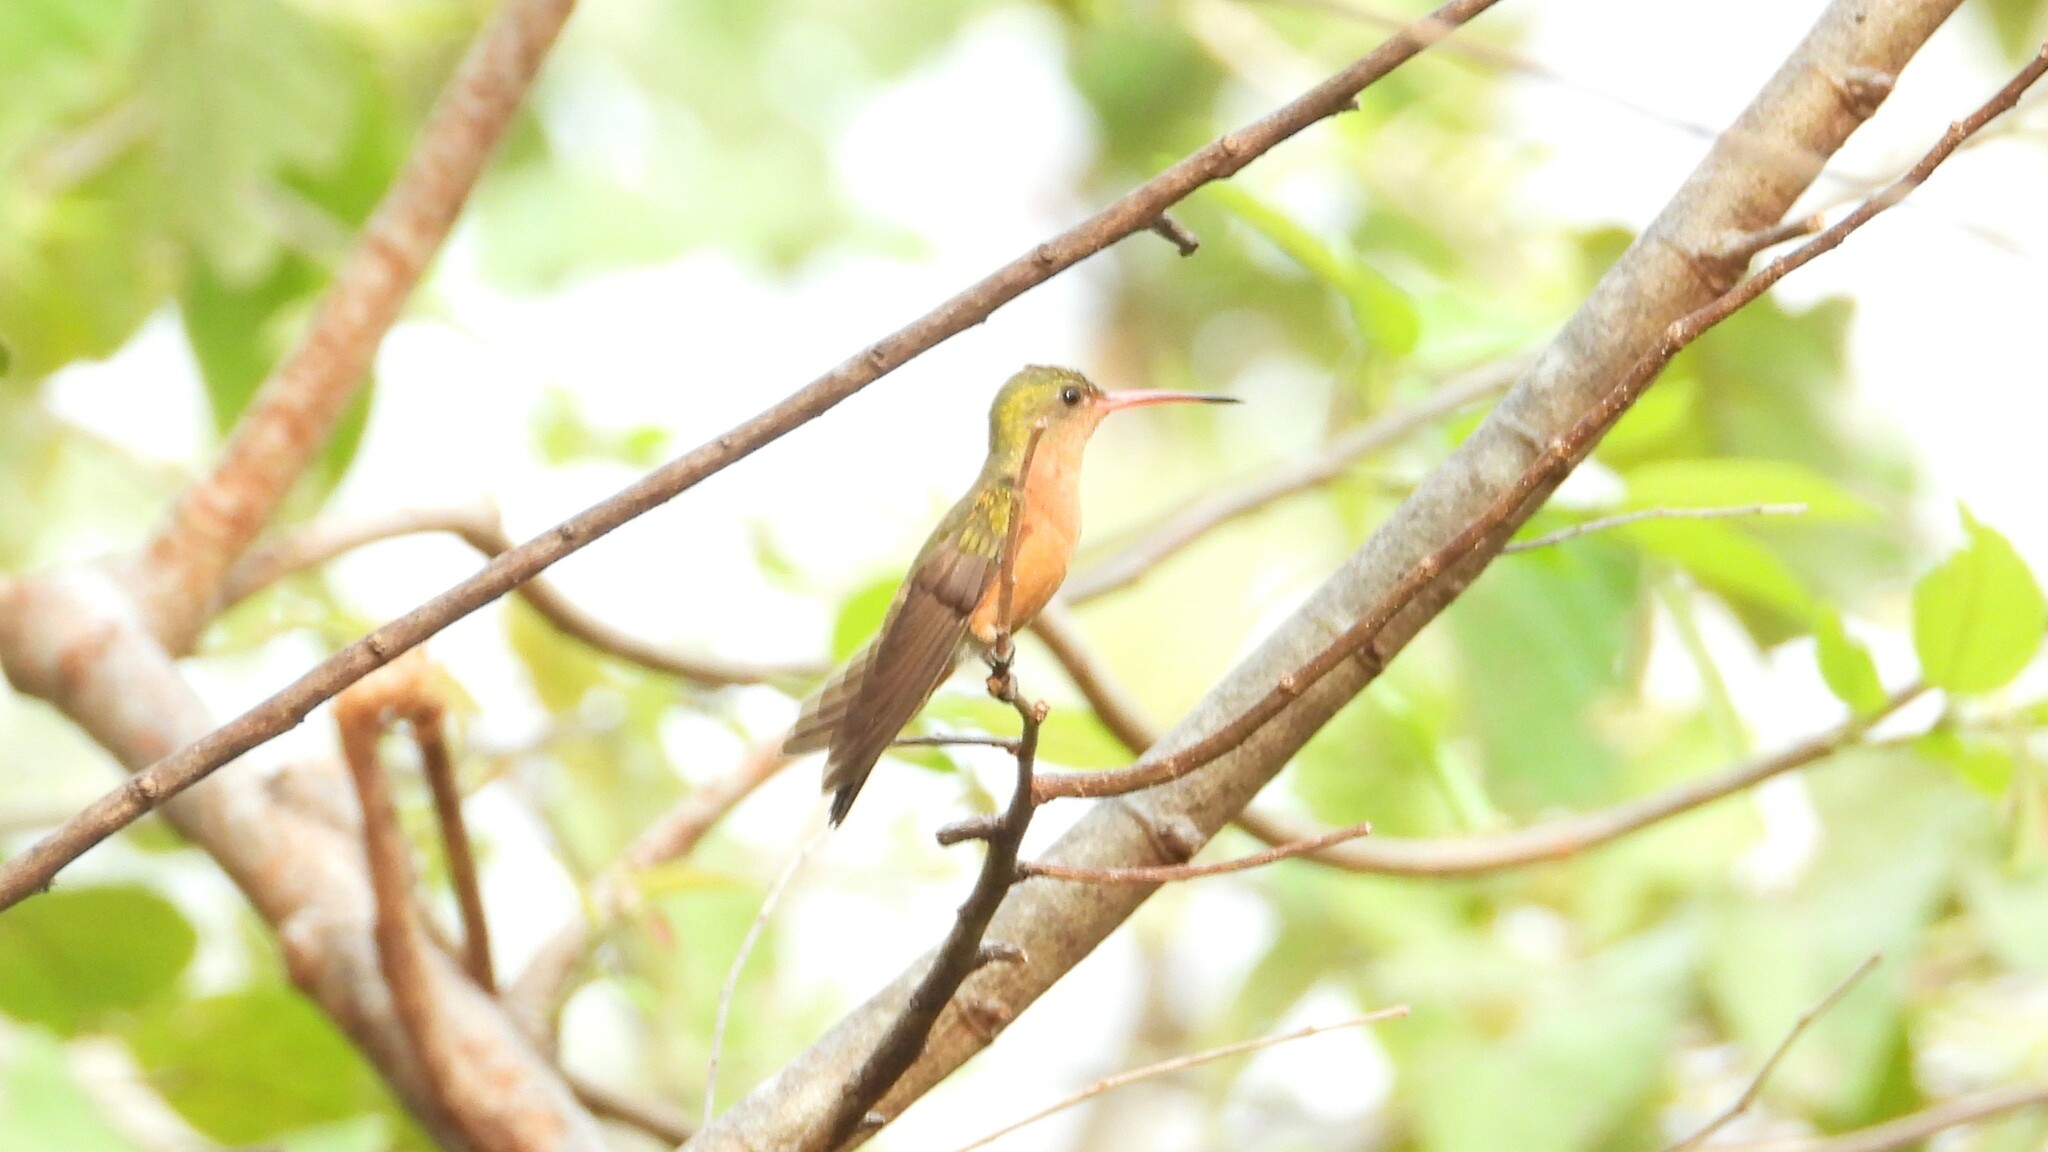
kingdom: Animalia
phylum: Chordata
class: Aves
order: Apodiformes
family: Trochilidae
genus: Amazilia
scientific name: Amazilia rutila
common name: Cinnamon hummingbird
